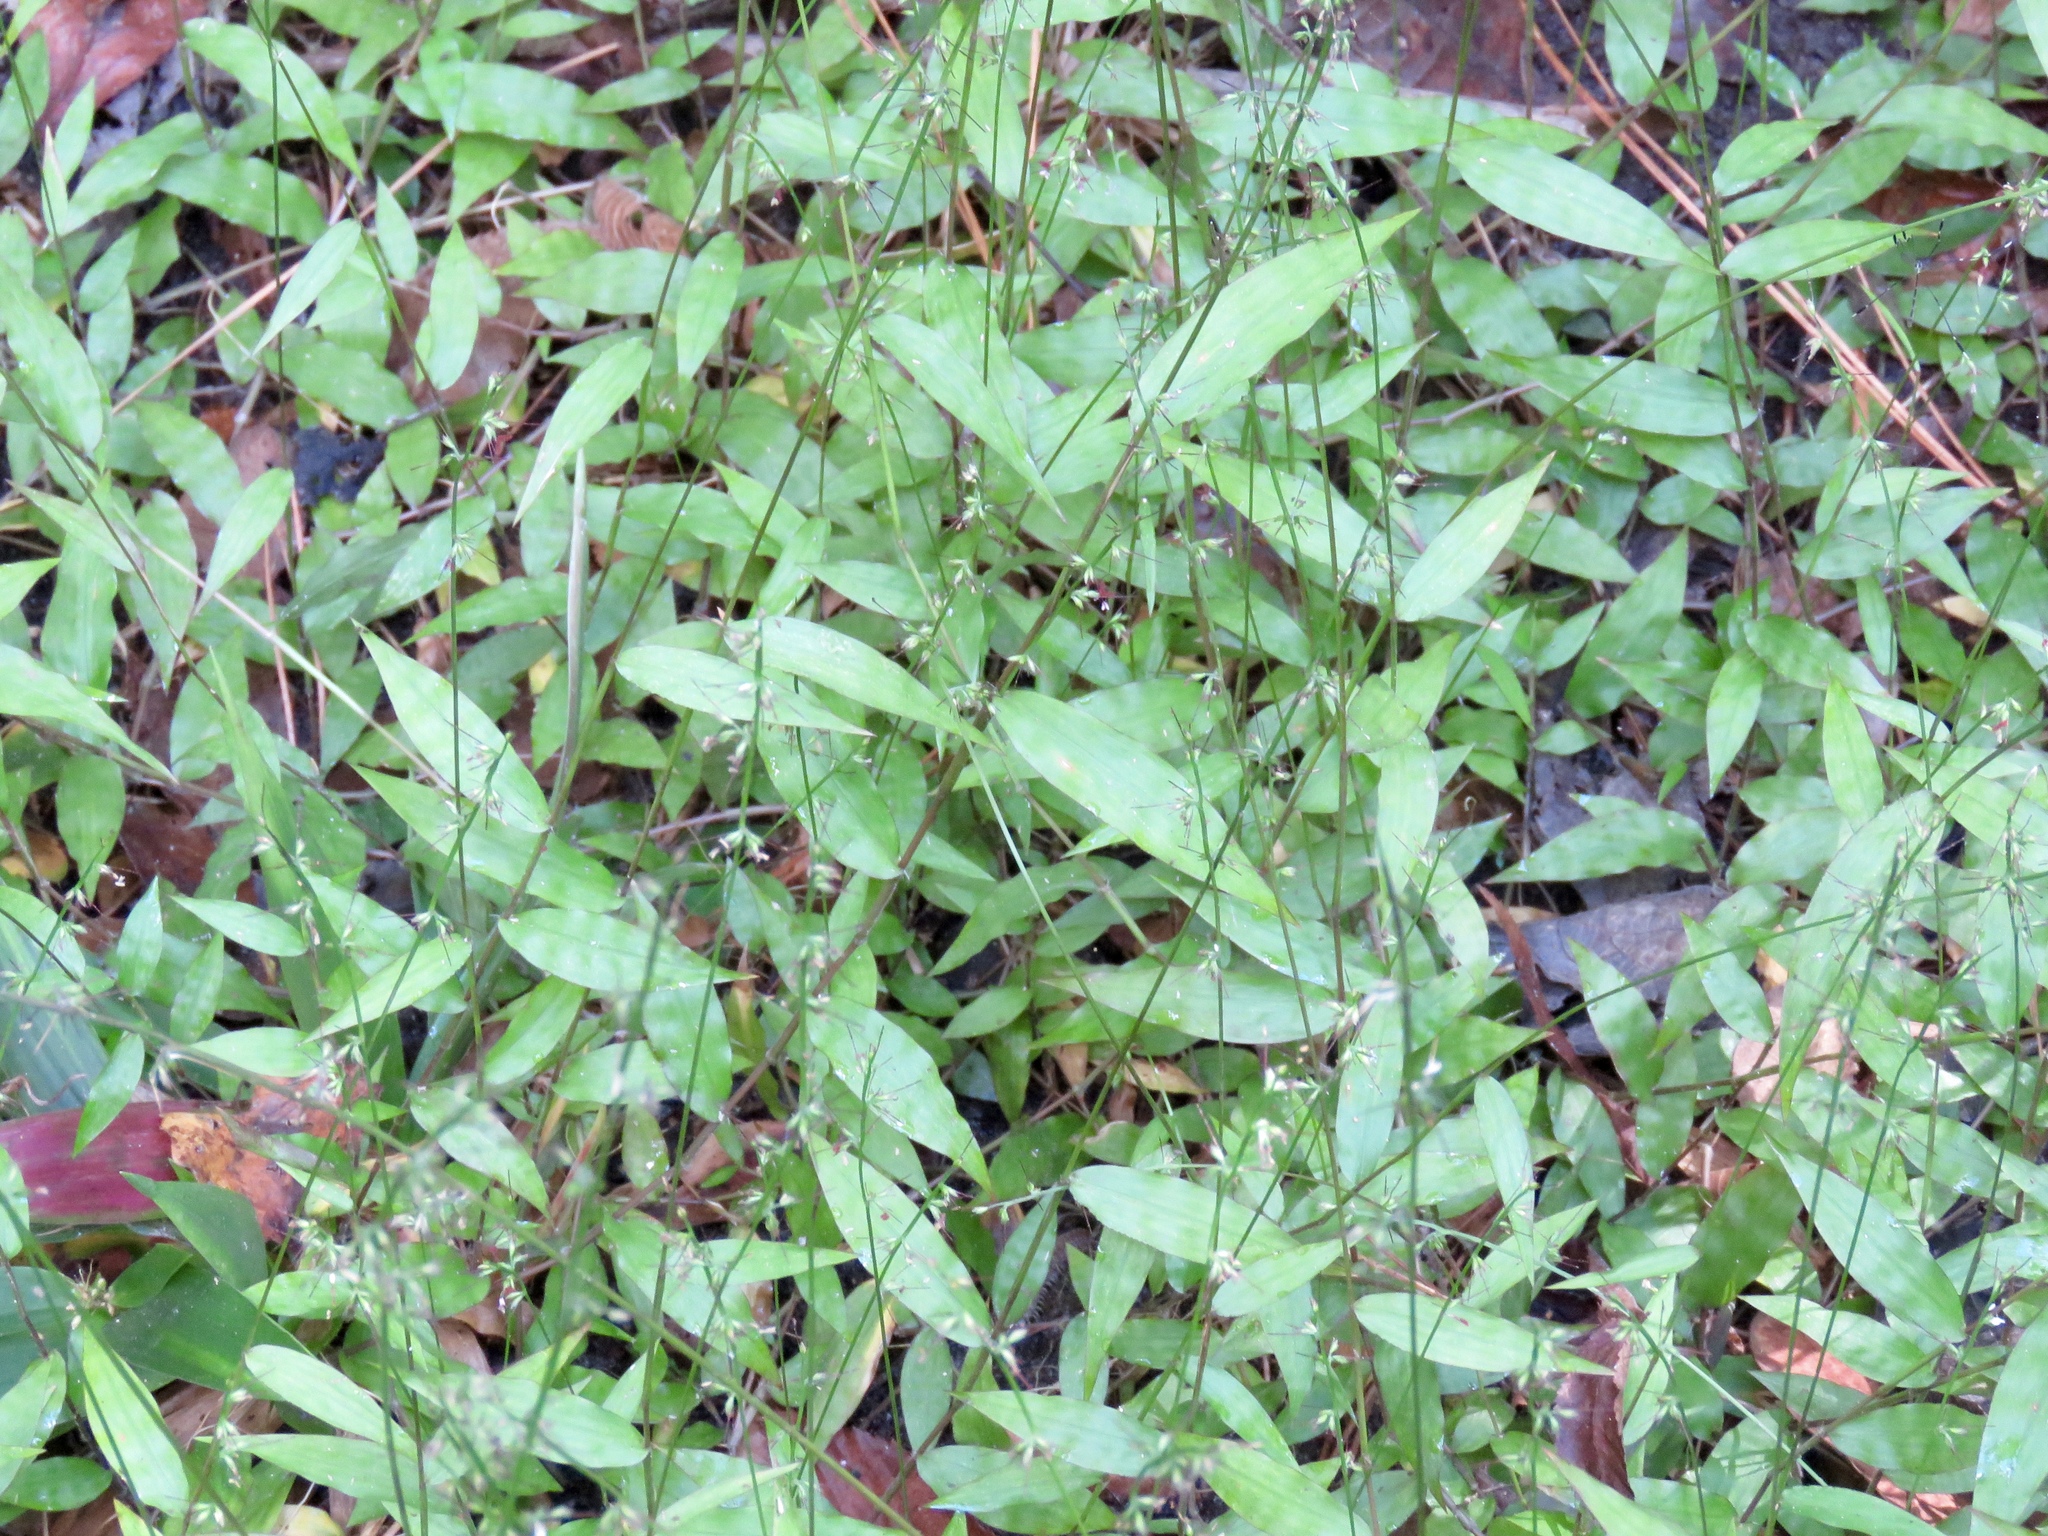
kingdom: Plantae
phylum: Tracheophyta
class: Liliopsida
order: Poales
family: Poaceae
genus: Oplismenus
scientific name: Oplismenus hirtellus
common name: Basketgrass
